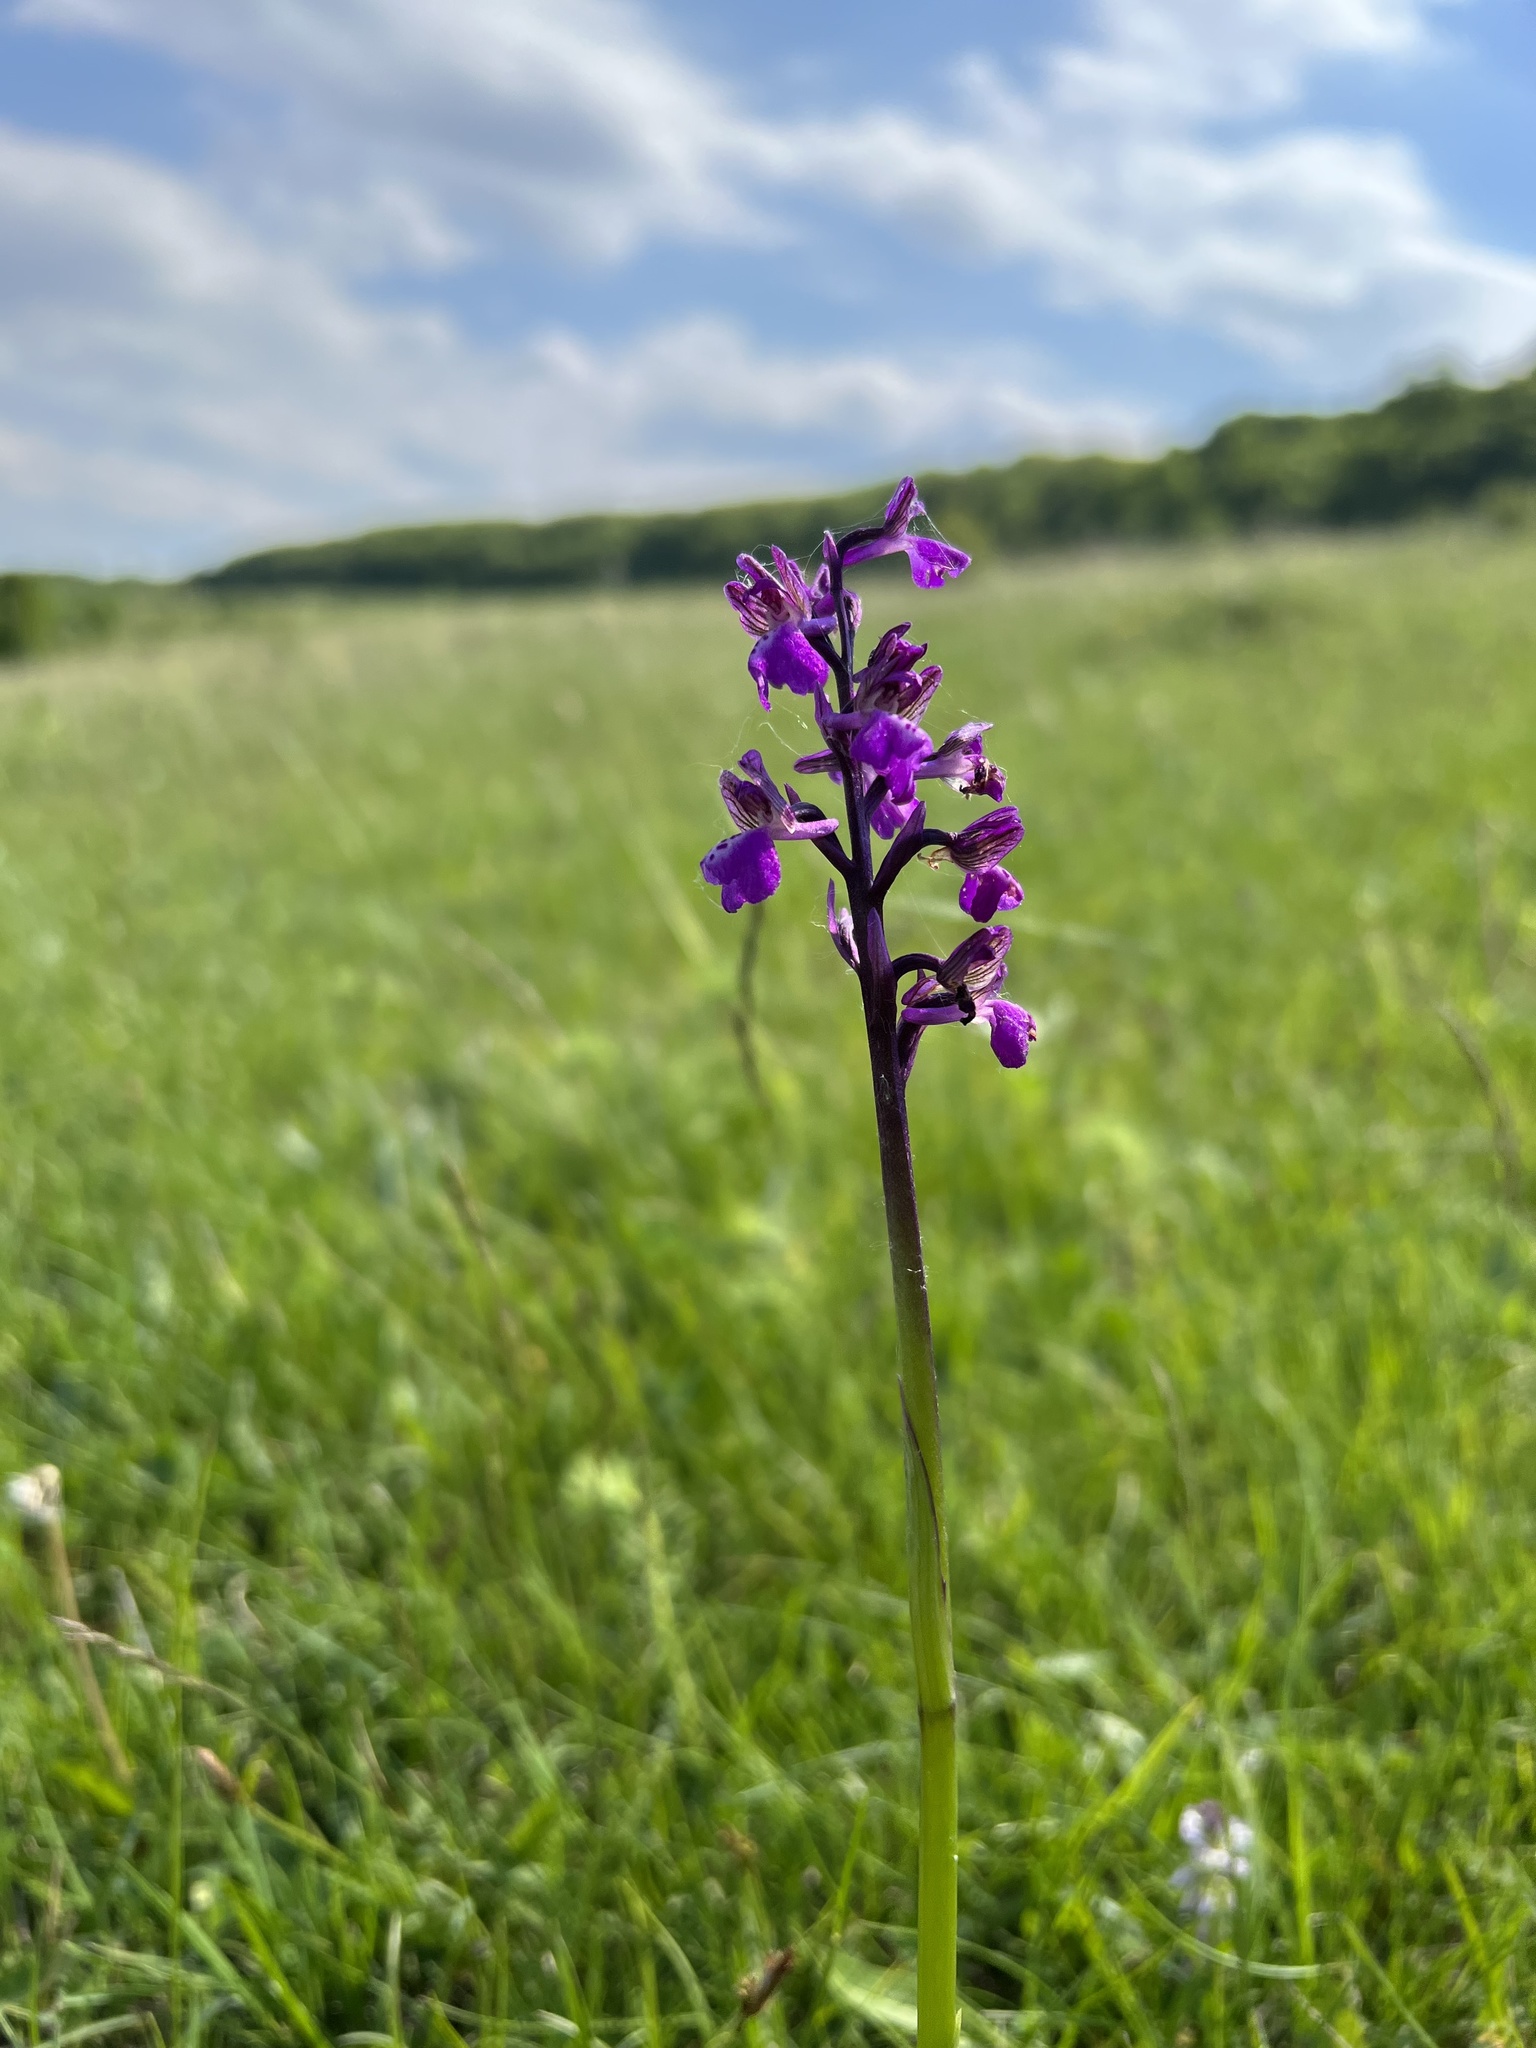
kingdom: Plantae
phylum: Tracheophyta
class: Liliopsida
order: Asparagales
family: Orchidaceae
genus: Anacamptis
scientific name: Anacamptis morio
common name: Green-winged orchid
